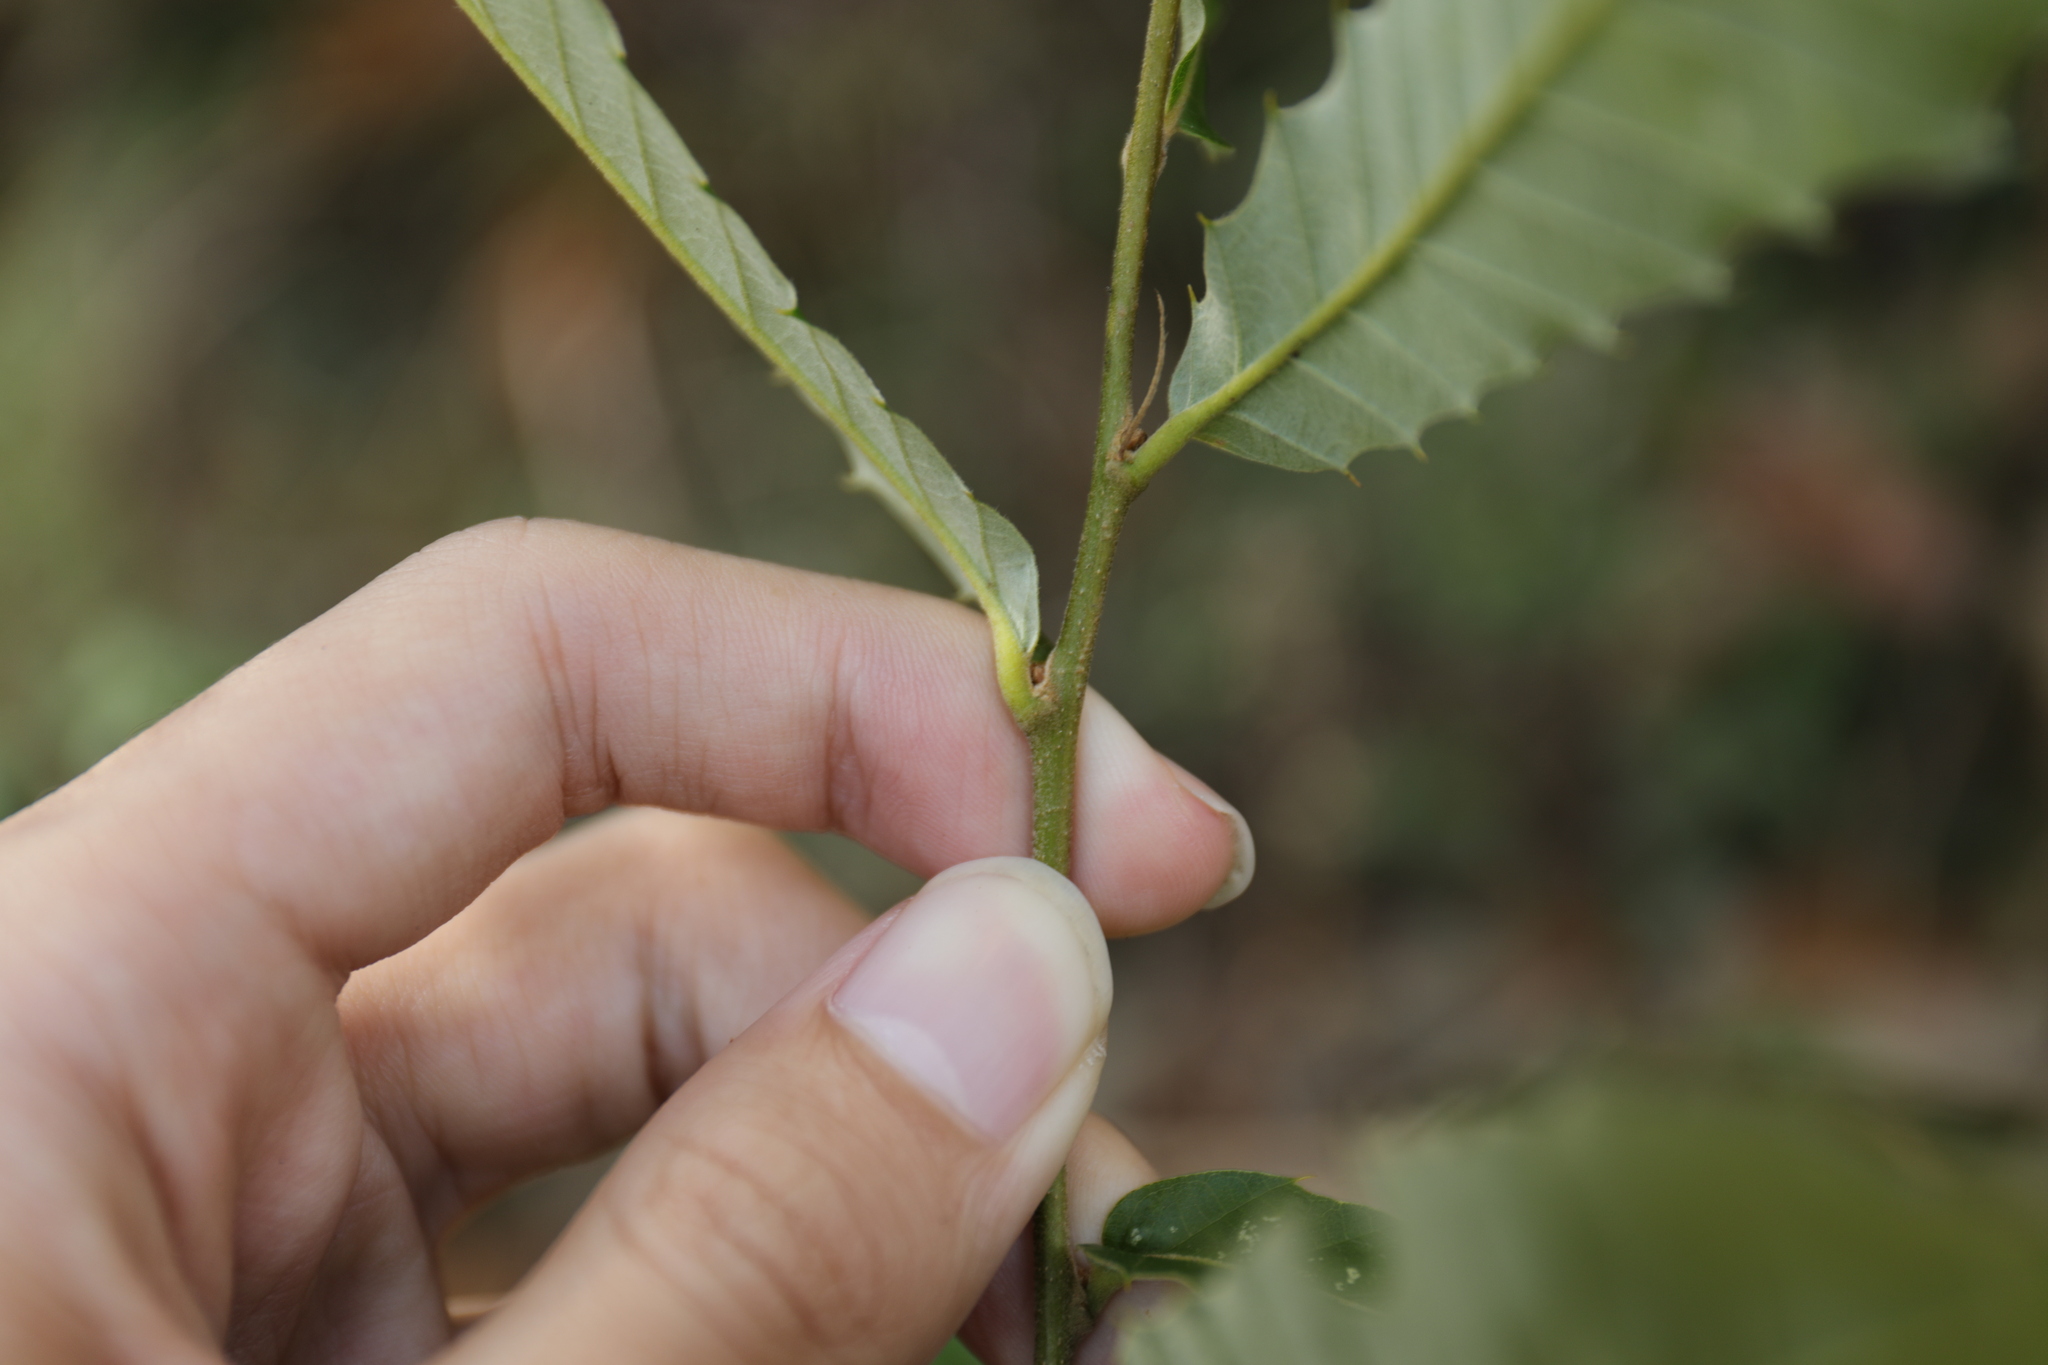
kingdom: Plantae
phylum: Tracheophyta
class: Magnoliopsida
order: Fagales
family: Fagaceae
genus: Quercus
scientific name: Quercus variabilis
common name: Chinese cork oak
